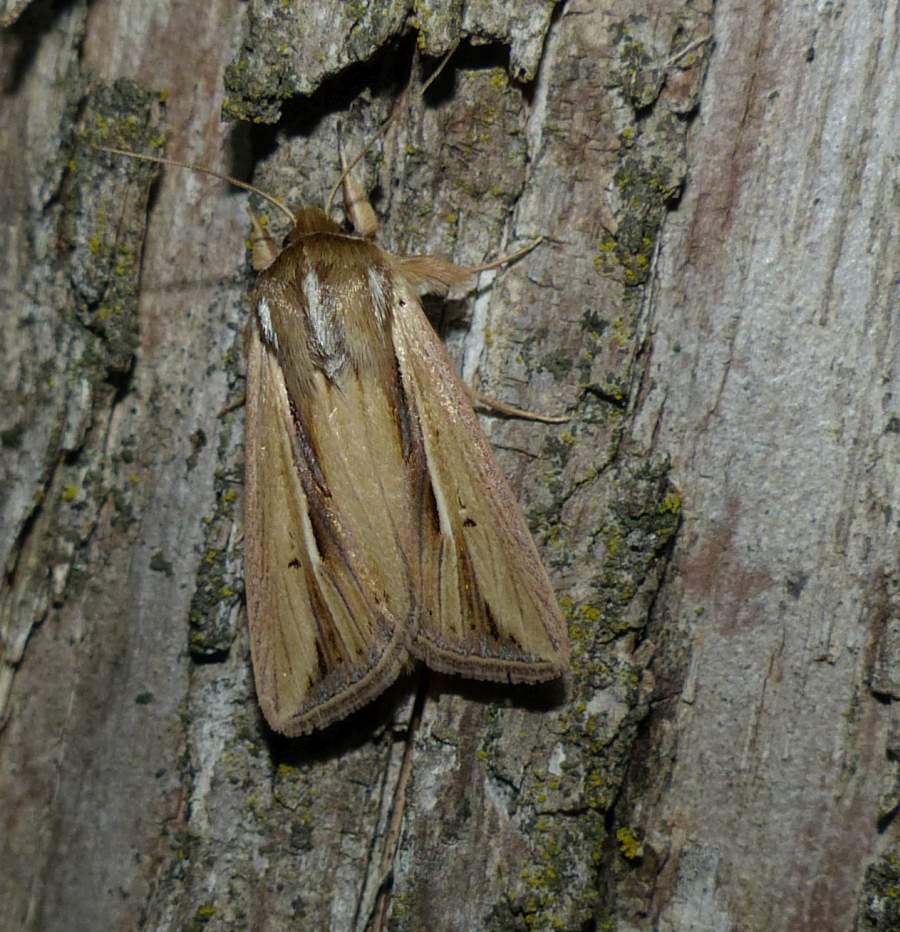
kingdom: Animalia
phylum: Arthropoda
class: Insecta
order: Lepidoptera
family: Noctuidae
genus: Dargida
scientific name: Dargida diffusa
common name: Wheat head armyworm
